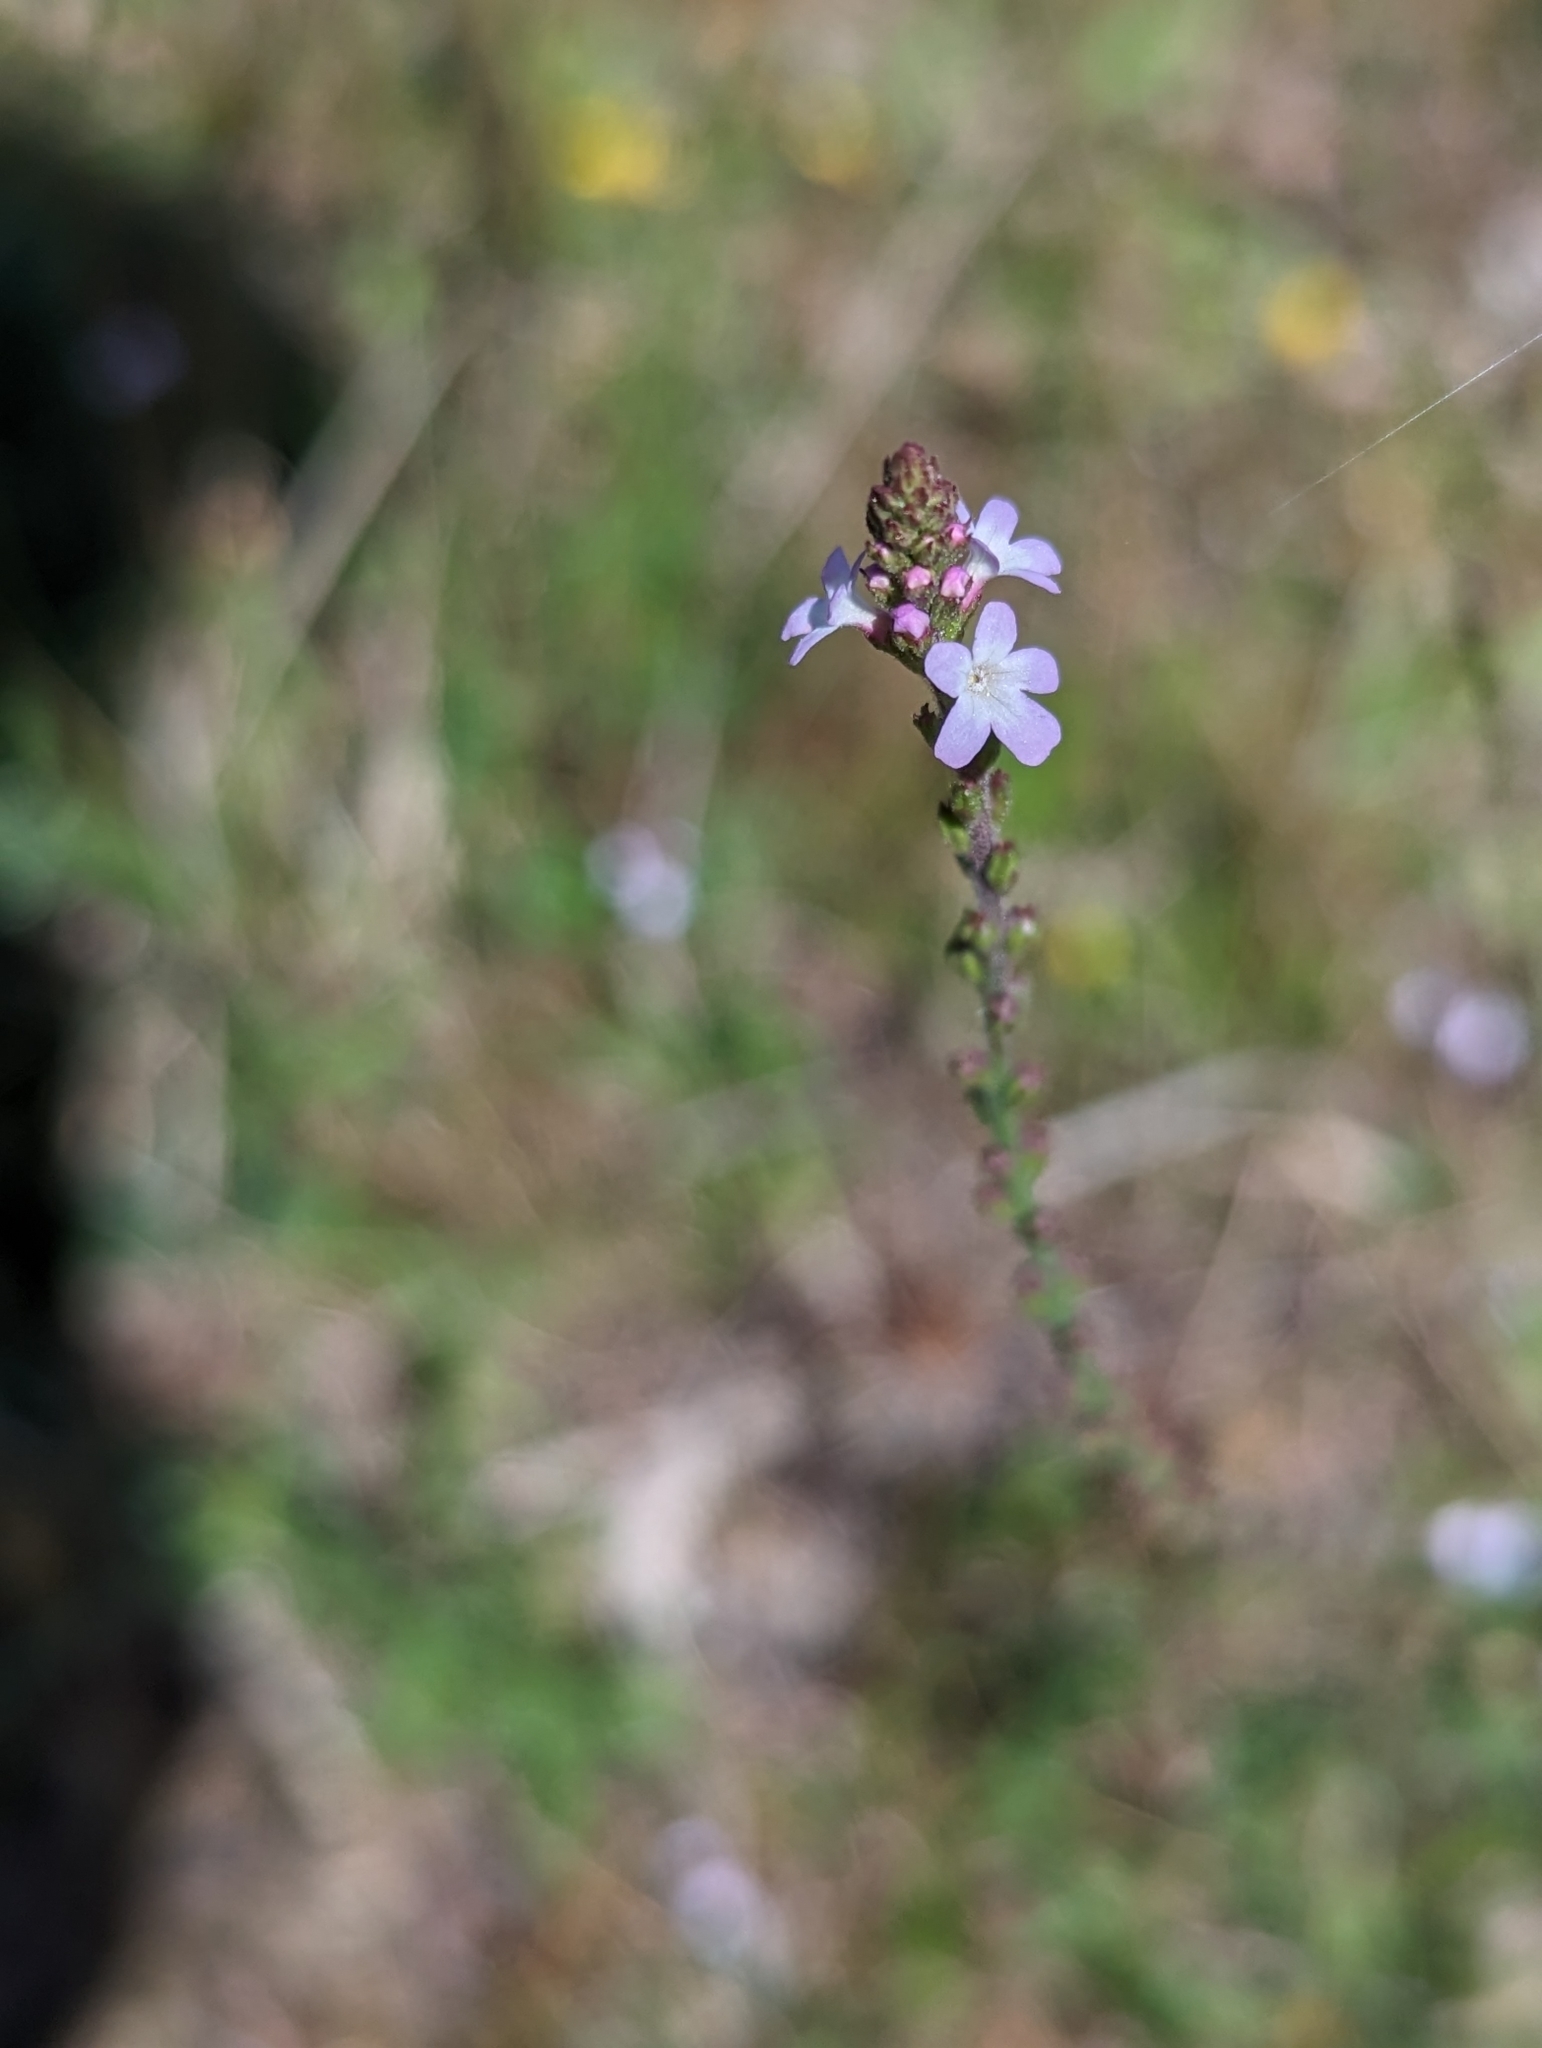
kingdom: Plantae
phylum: Tracheophyta
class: Magnoliopsida
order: Lamiales
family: Verbenaceae
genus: Verbena
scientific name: Verbena officinalis
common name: Vervain
